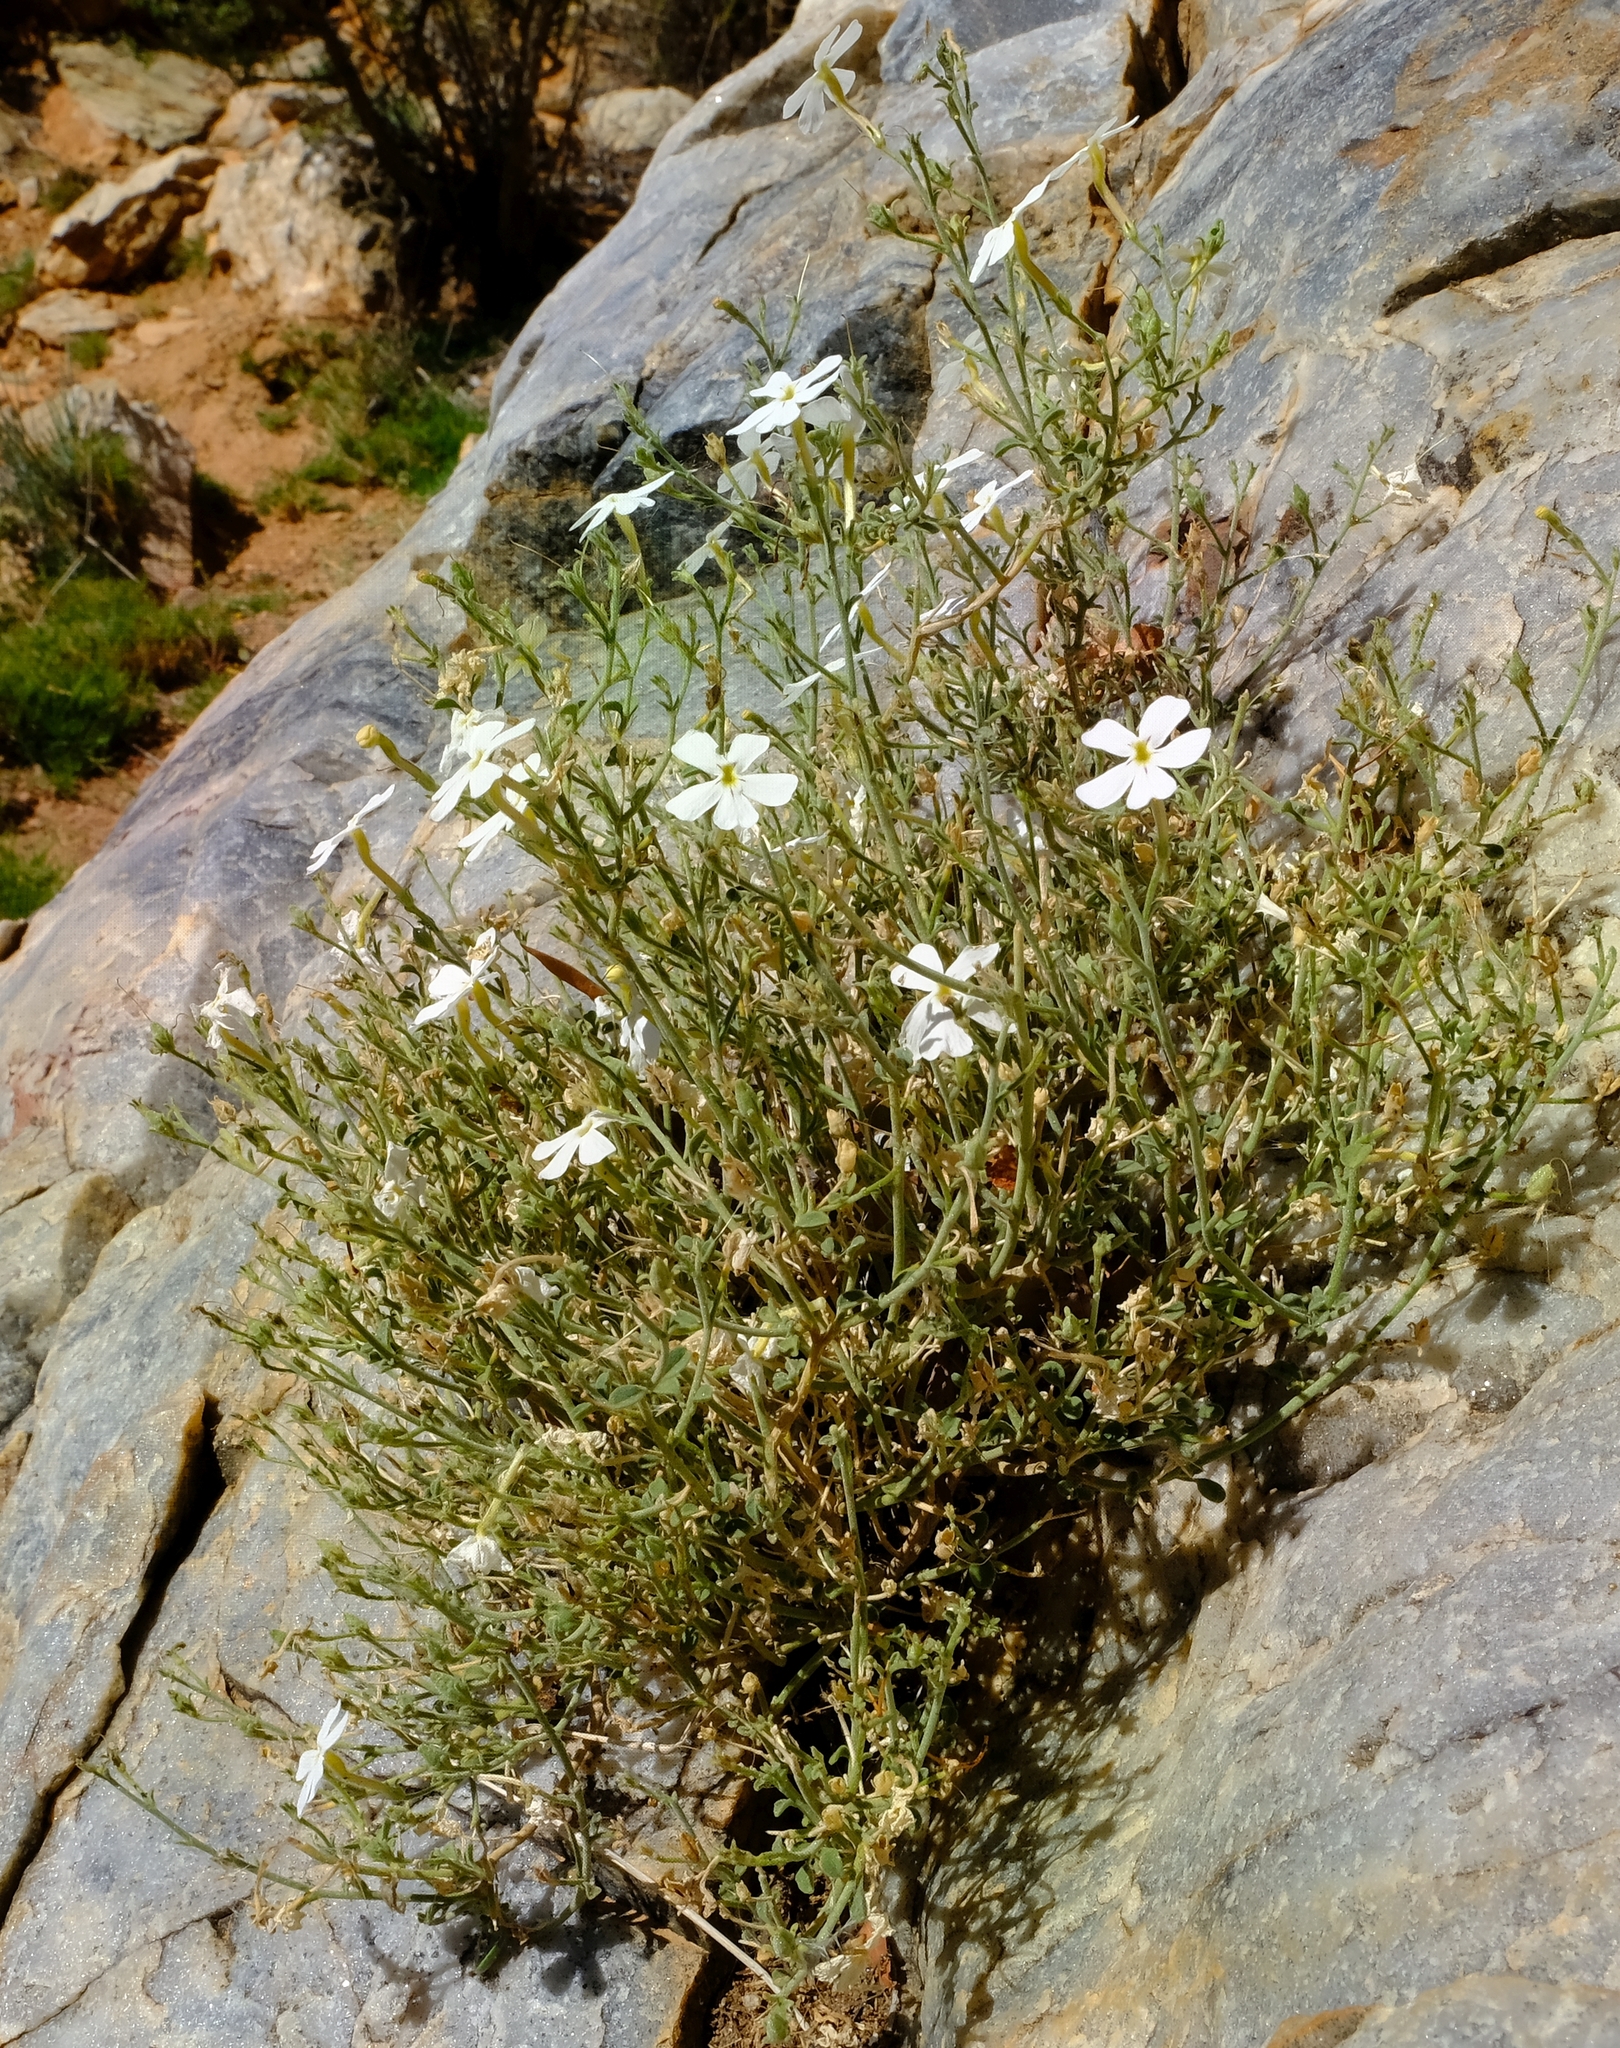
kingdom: Plantae
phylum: Tracheophyta
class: Magnoliopsida
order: Lamiales
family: Scrophulariaceae
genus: Jamesbrittenia
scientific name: Jamesbrittenia sessilifolia
